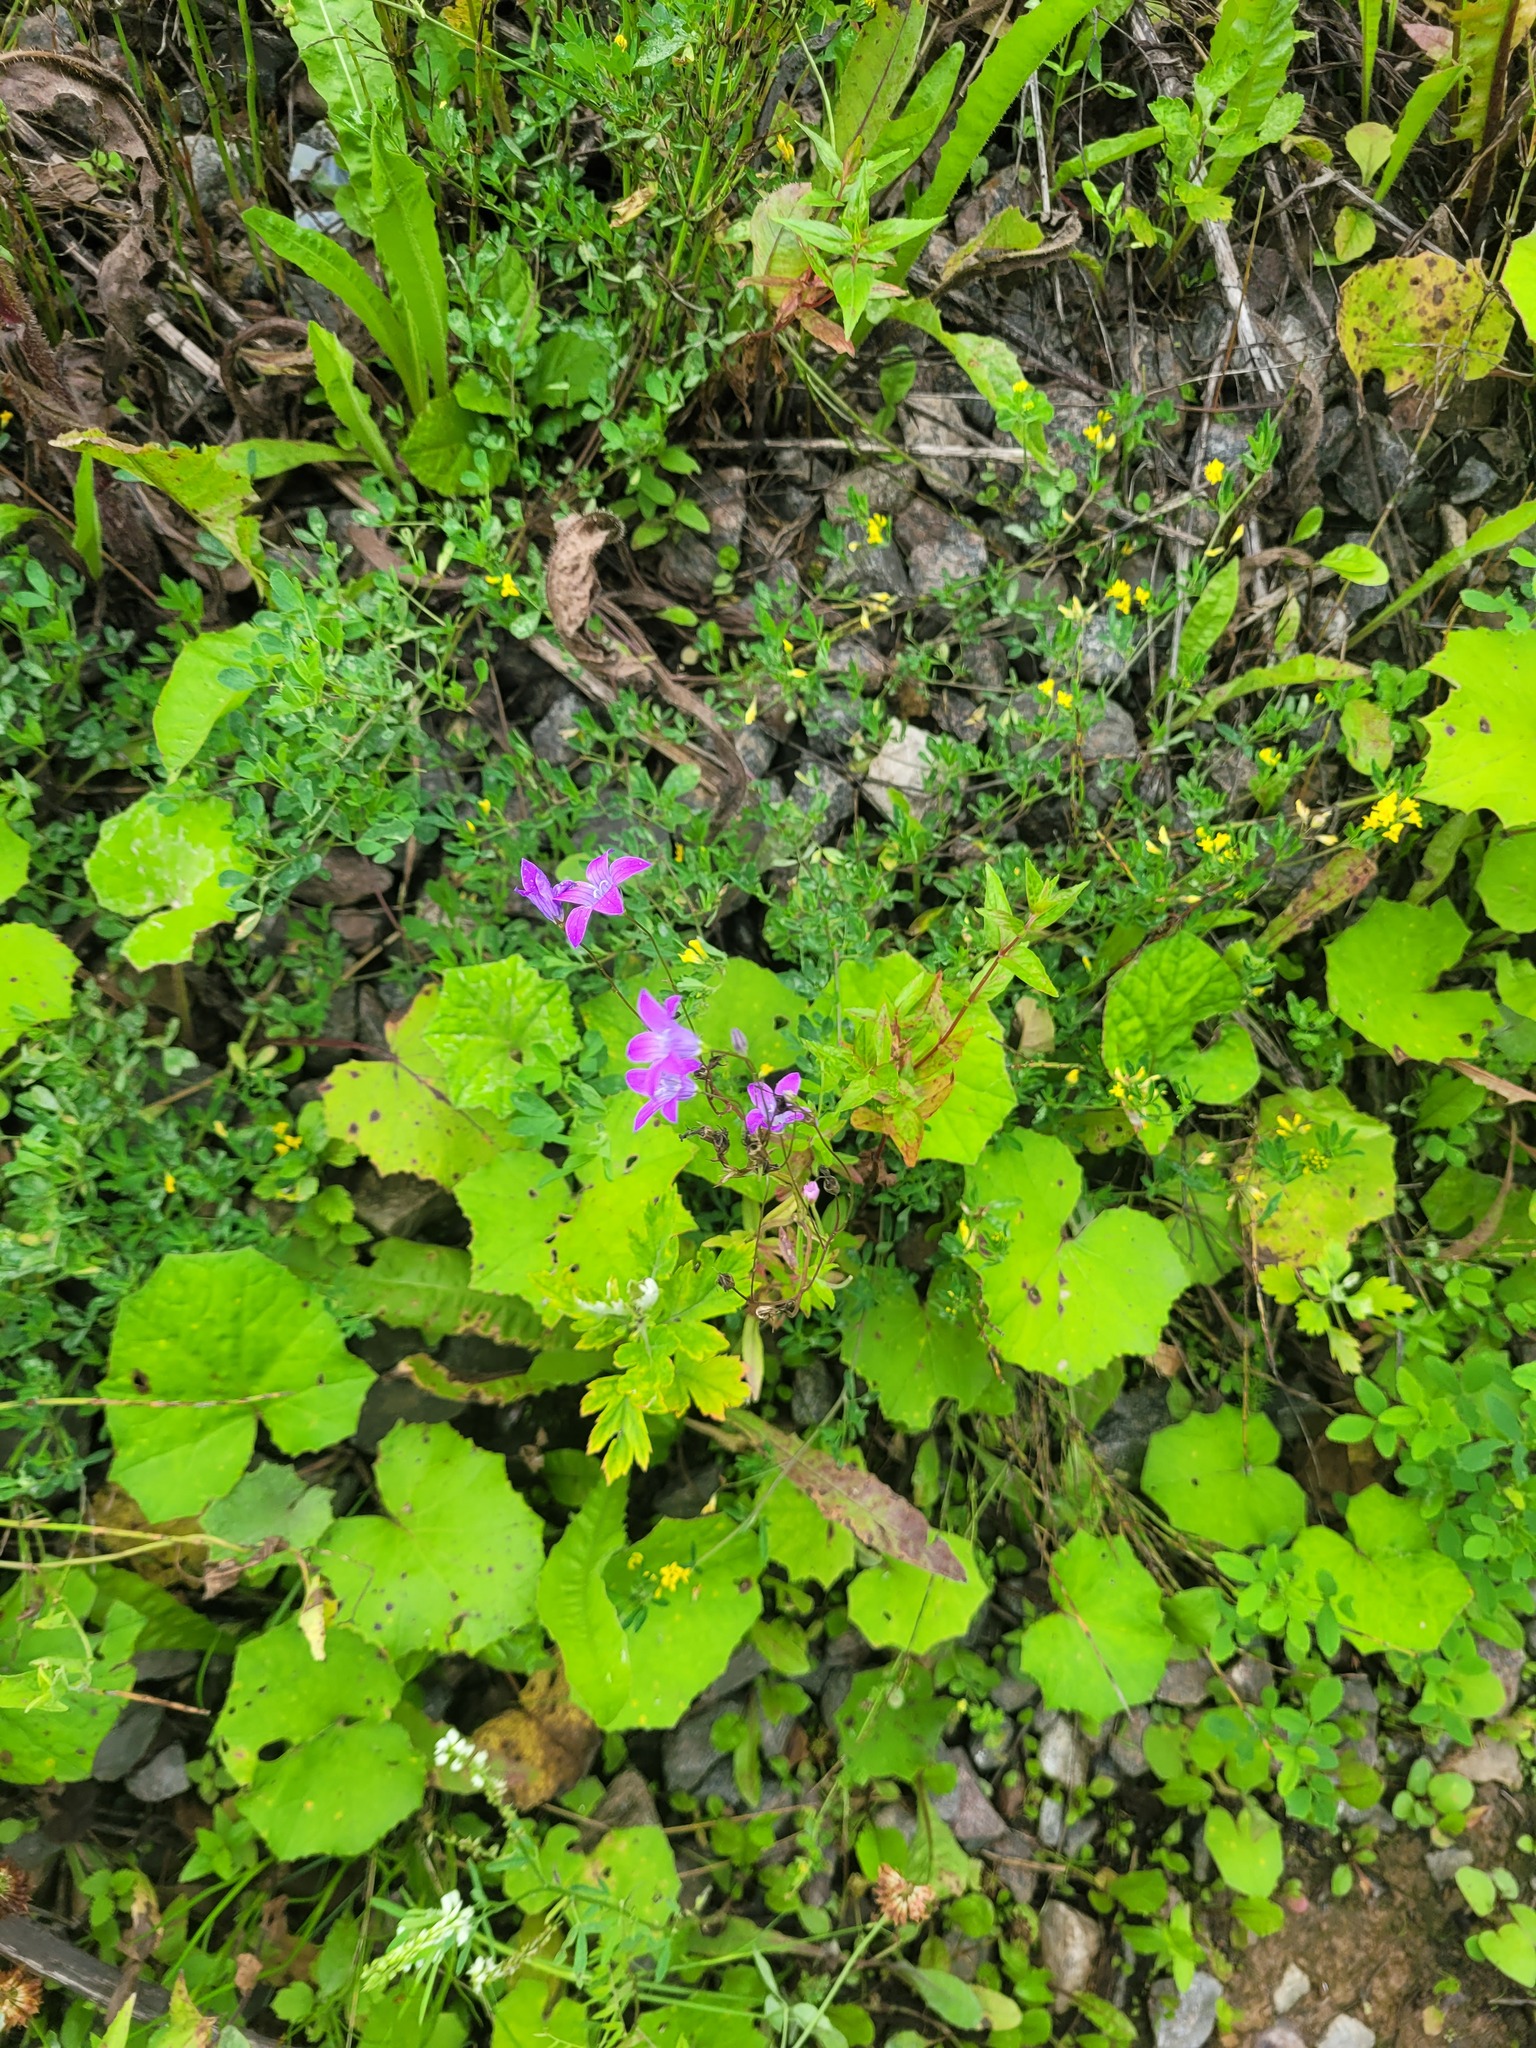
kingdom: Plantae
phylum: Tracheophyta
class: Magnoliopsida
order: Asterales
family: Campanulaceae
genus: Campanula
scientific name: Campanula patula
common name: Spreading bellflower
